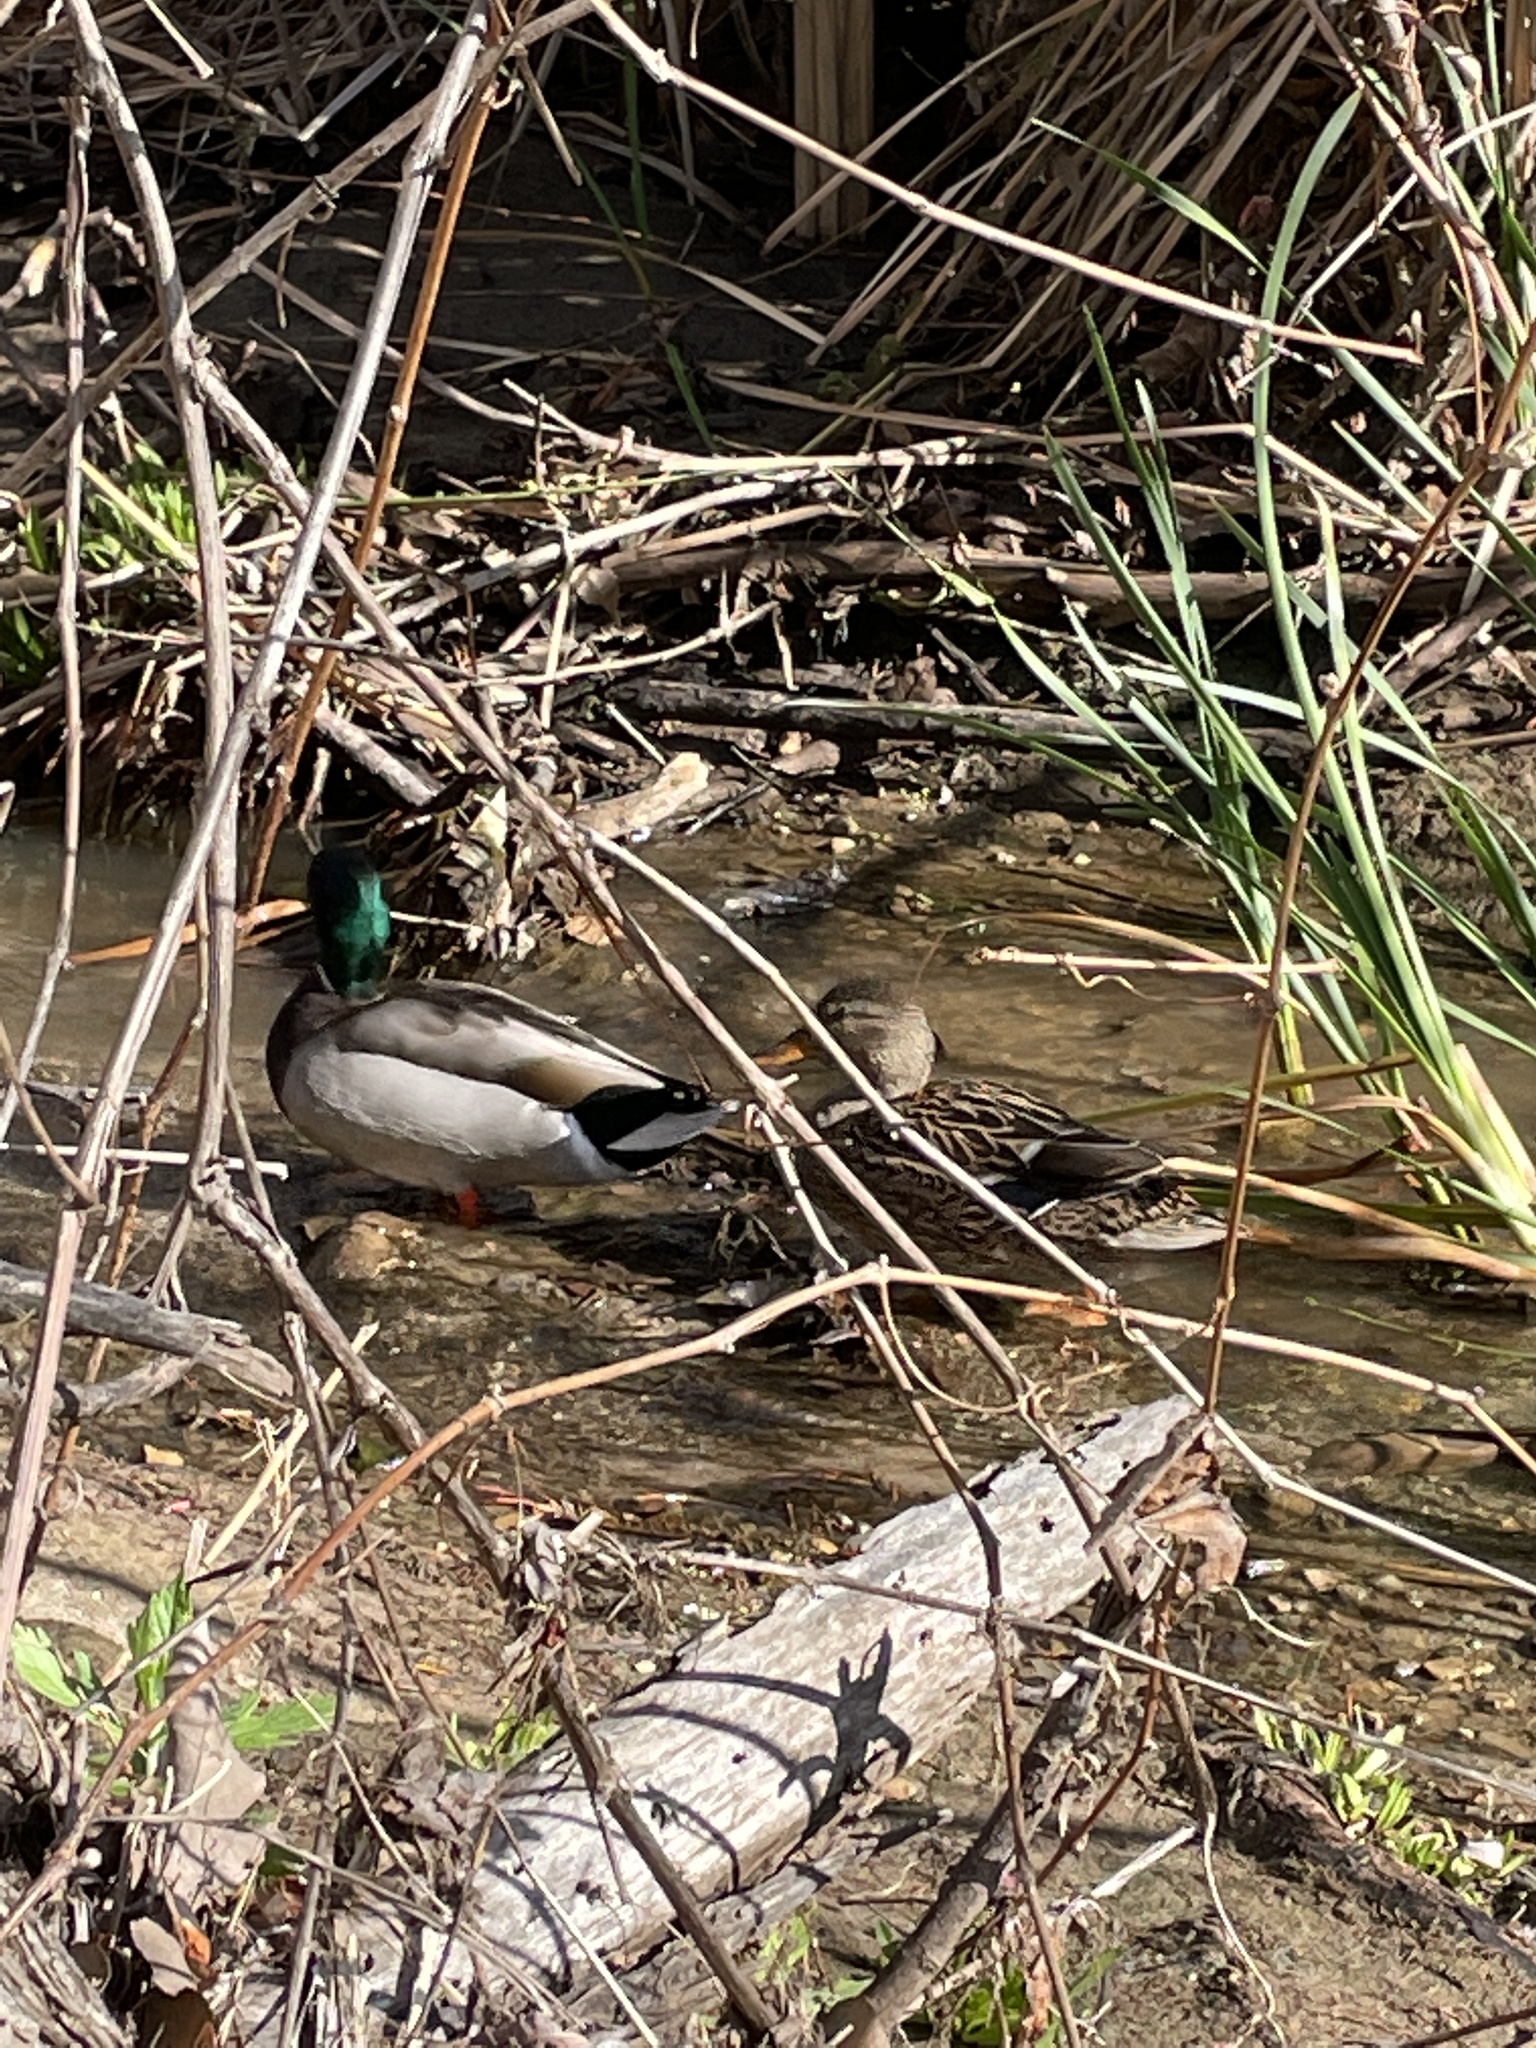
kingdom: Animalia
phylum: Chordata
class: Aves
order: Anseriformes
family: Anatidae
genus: Anas
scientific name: Anas platyrhynchos
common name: Mallard
